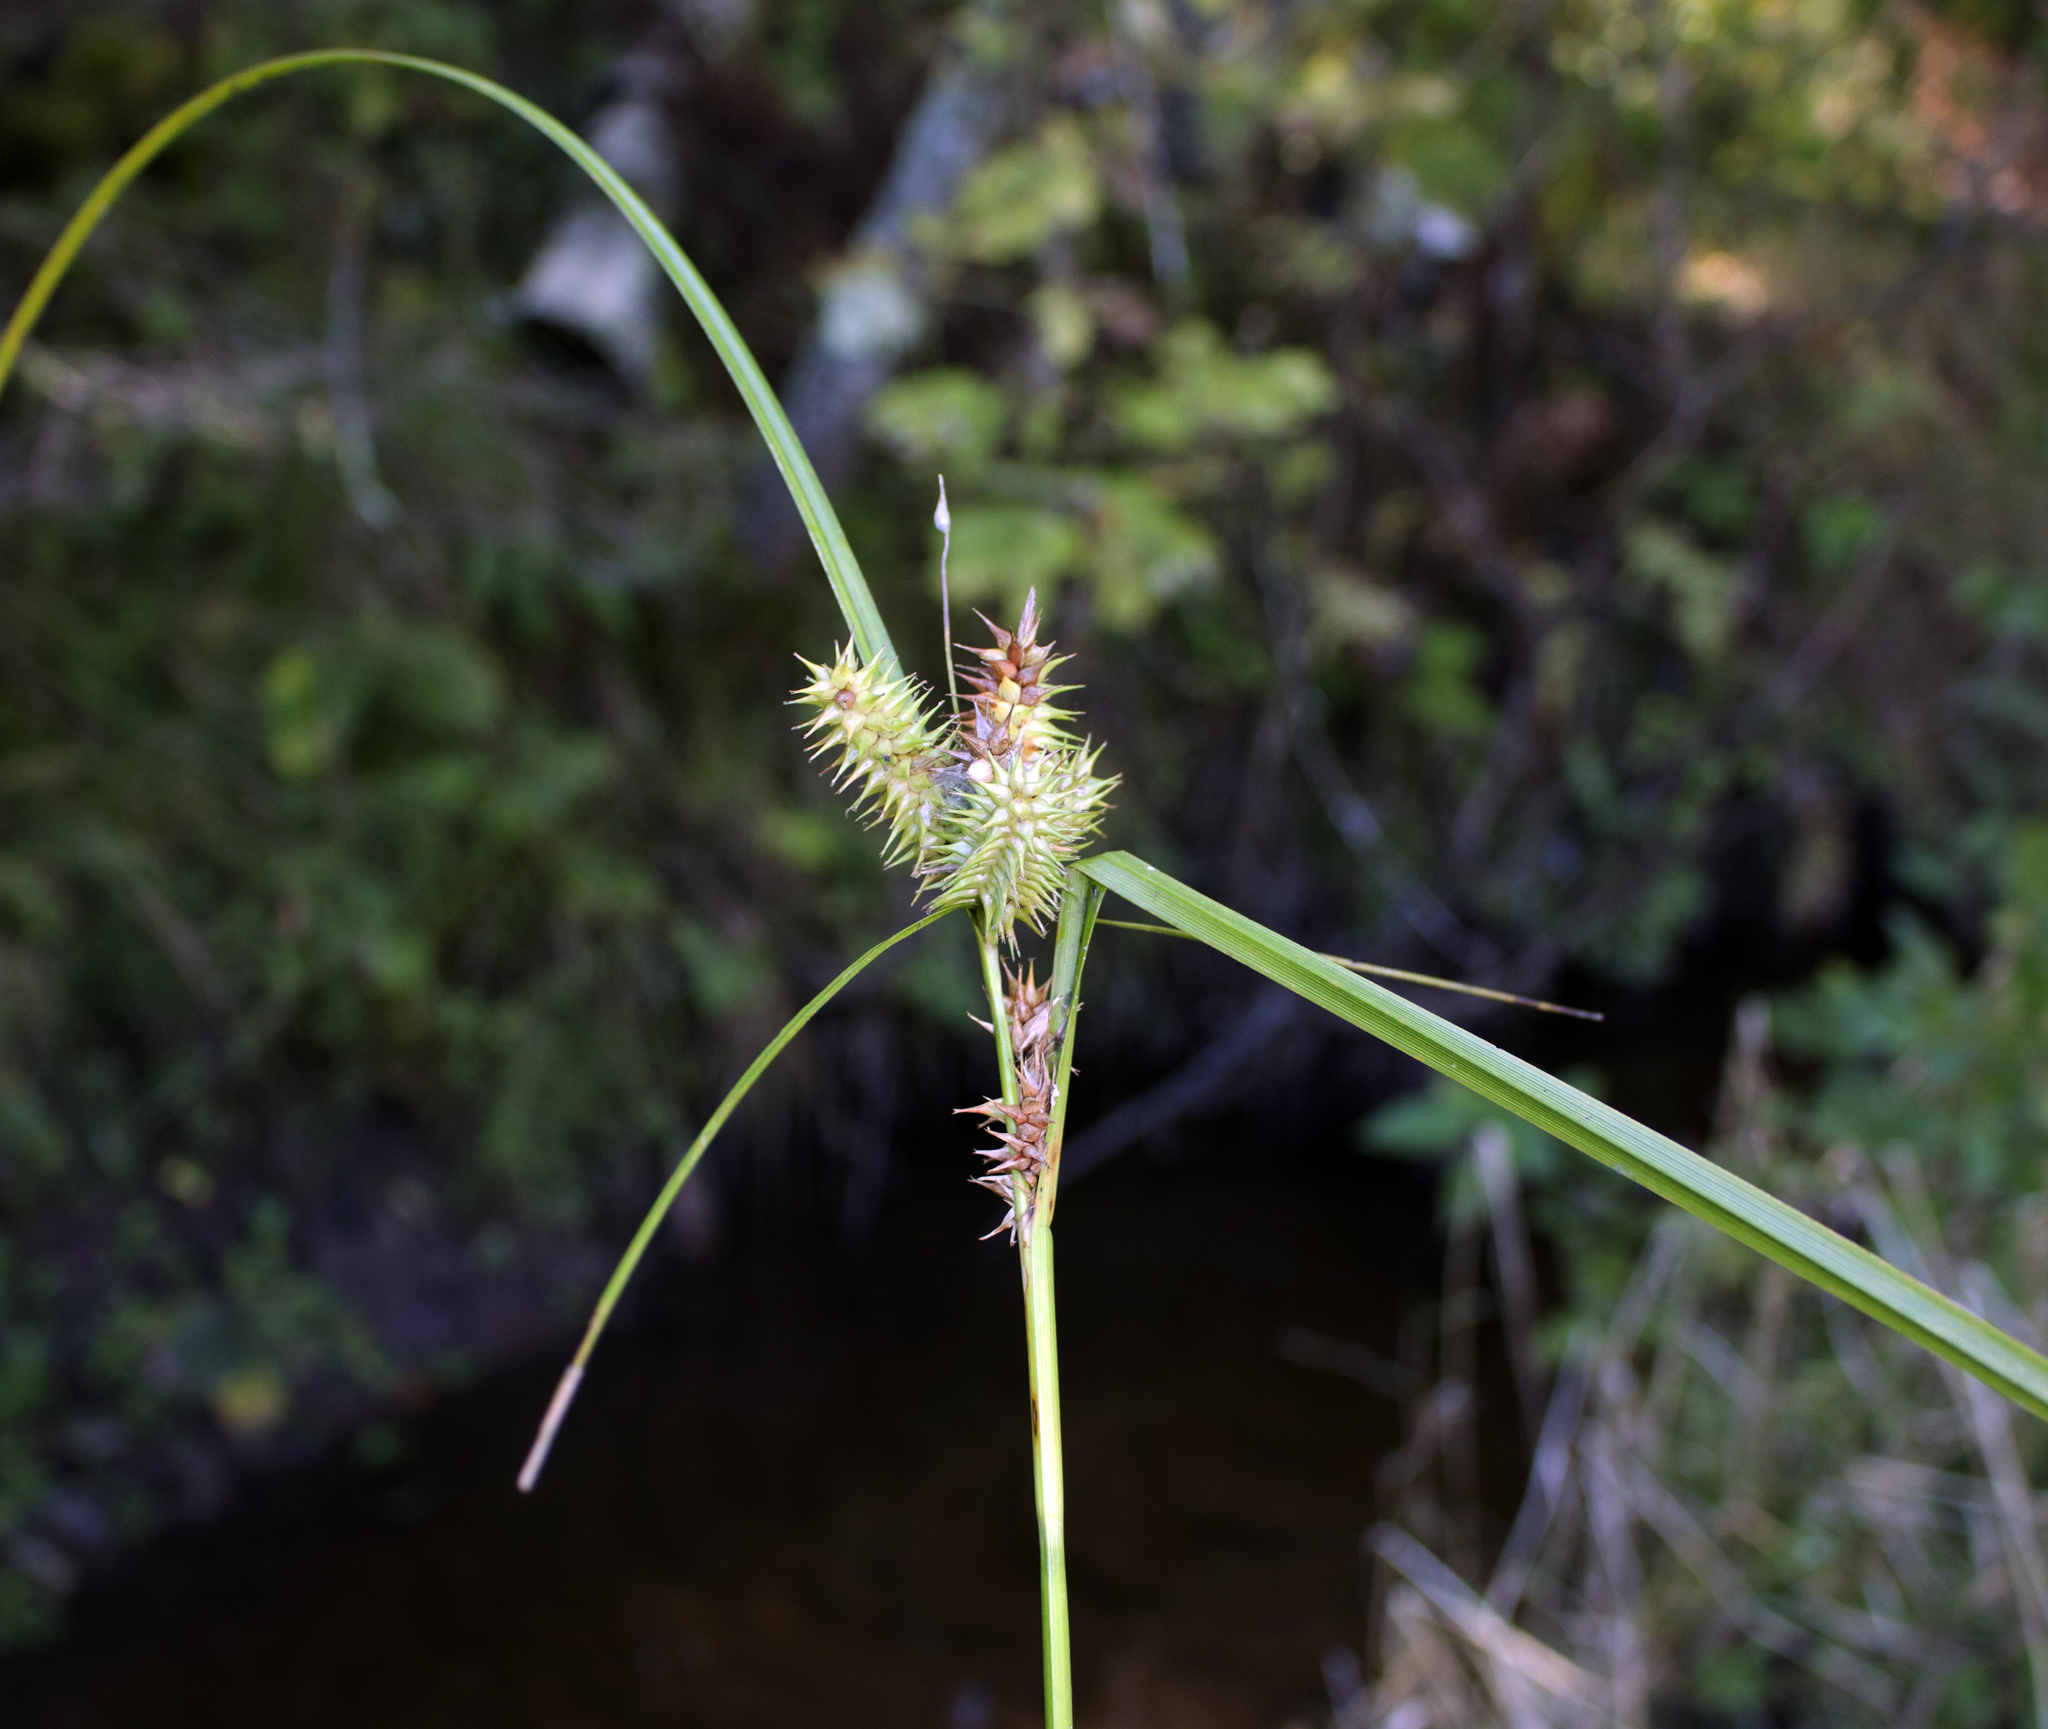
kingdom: Plantae
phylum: Tracheophyta
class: Liliopsida
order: Poales
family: Cyperaceae
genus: Carex
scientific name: Carex retrorsa
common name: Knot-sheath sedge
